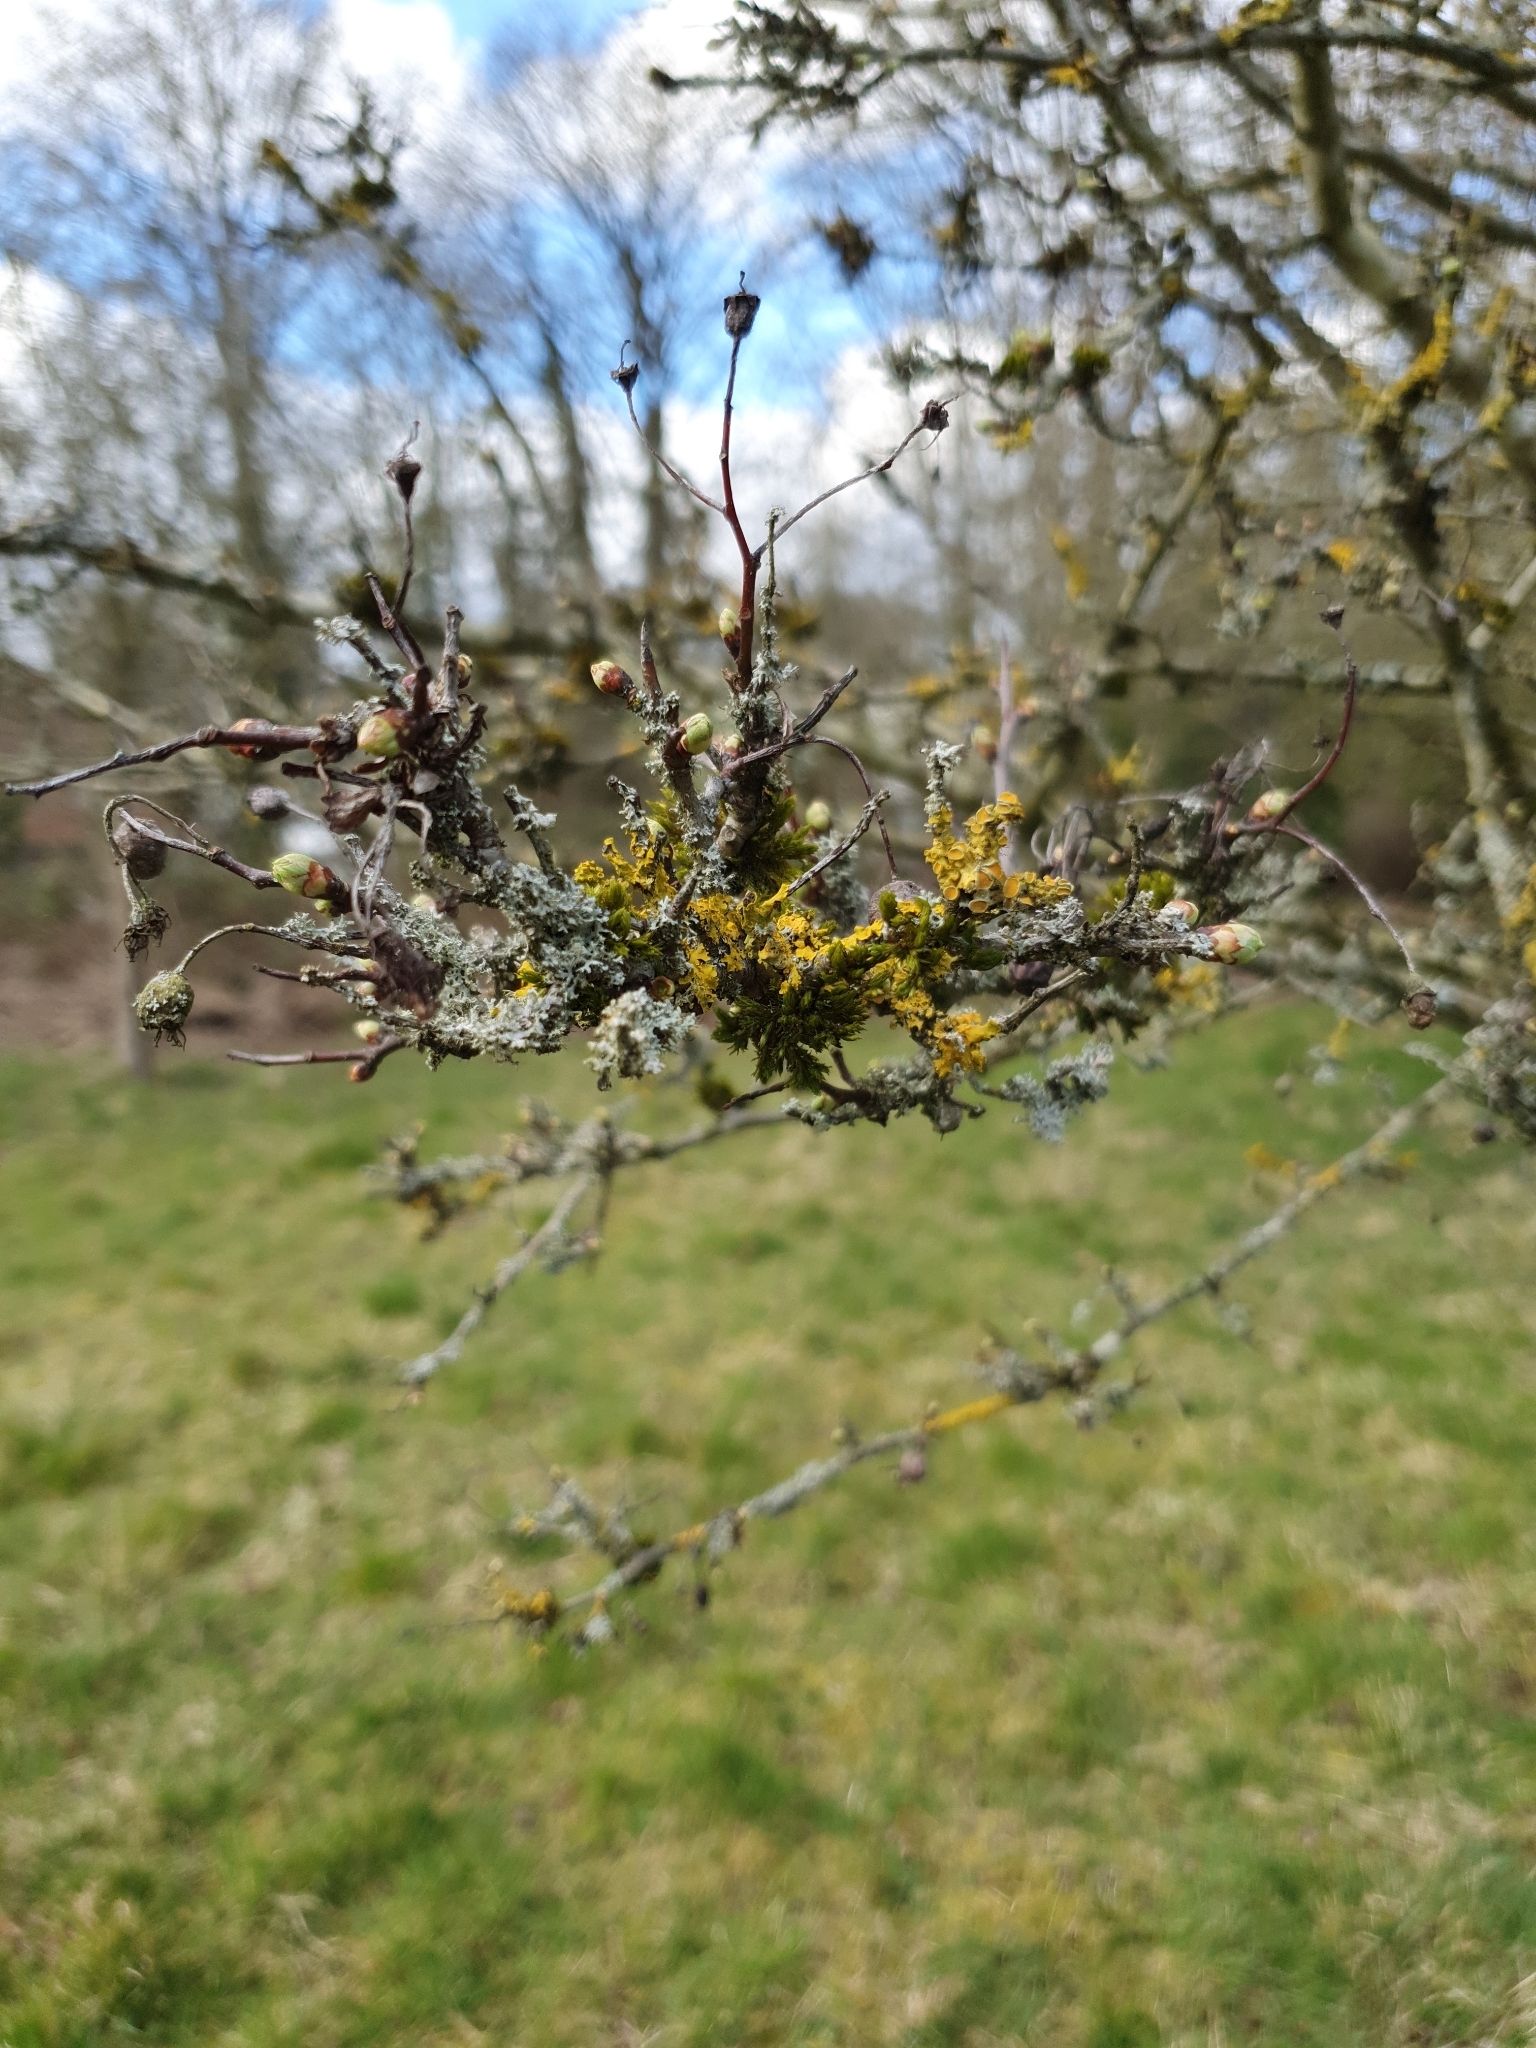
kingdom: Fungi
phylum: Ascomycota
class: Lecanoromycetes
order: Teloschistales
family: Teloschistaceae
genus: Xanthoria
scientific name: Xanthoria parietina
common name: Common orange lichen
